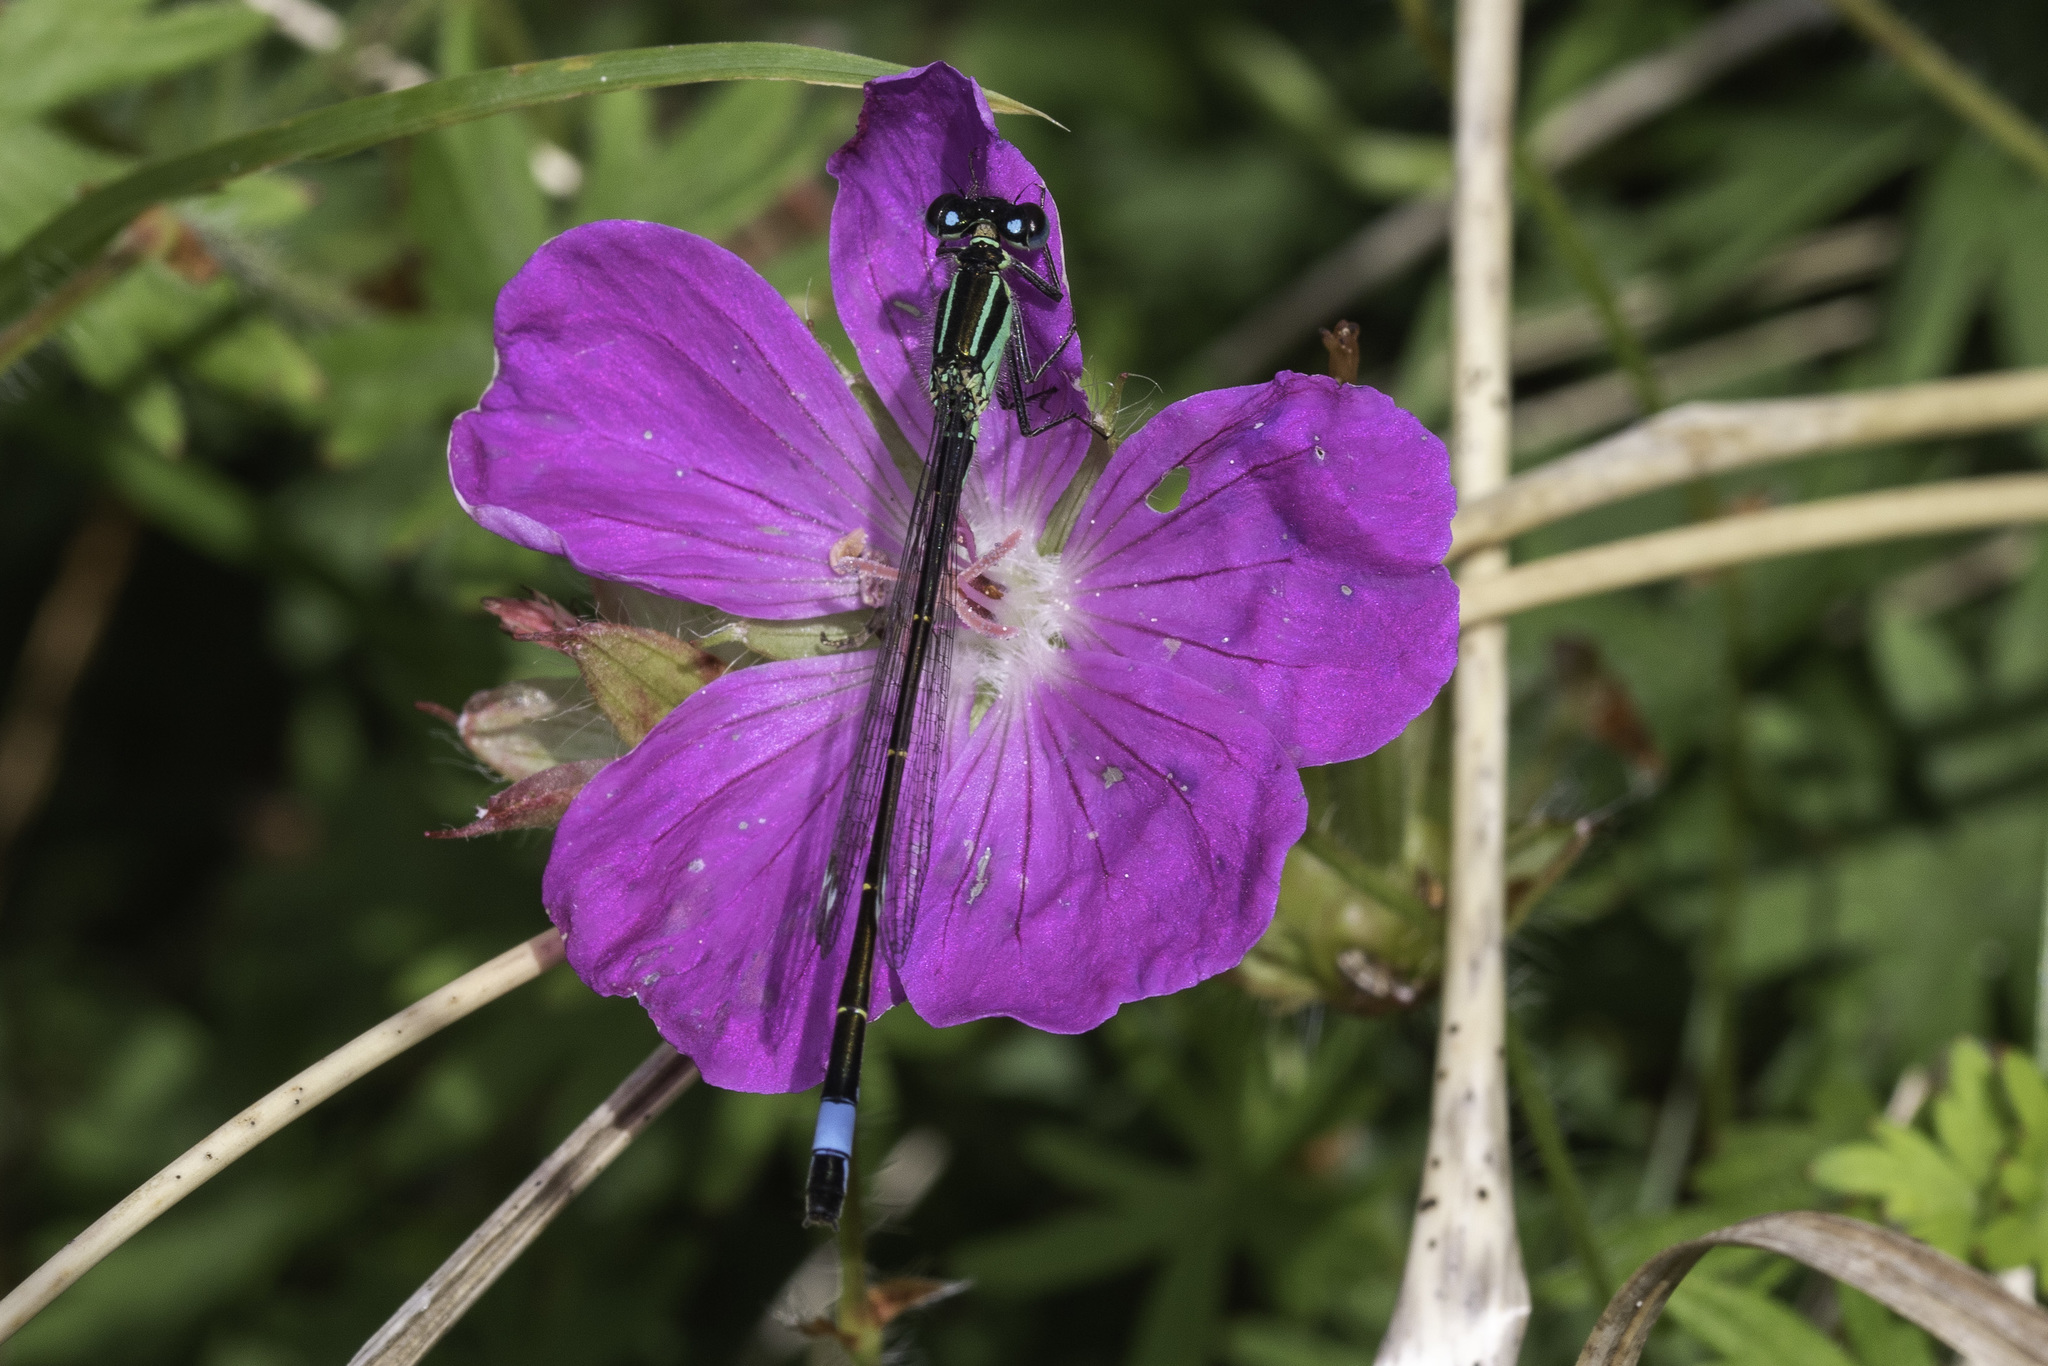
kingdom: Animalia
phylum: Arthropoda
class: Insecta
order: Odonata
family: Coenagrionidae
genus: Ischnura
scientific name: Ischnura elegans
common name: Blue-tailed damselfly
